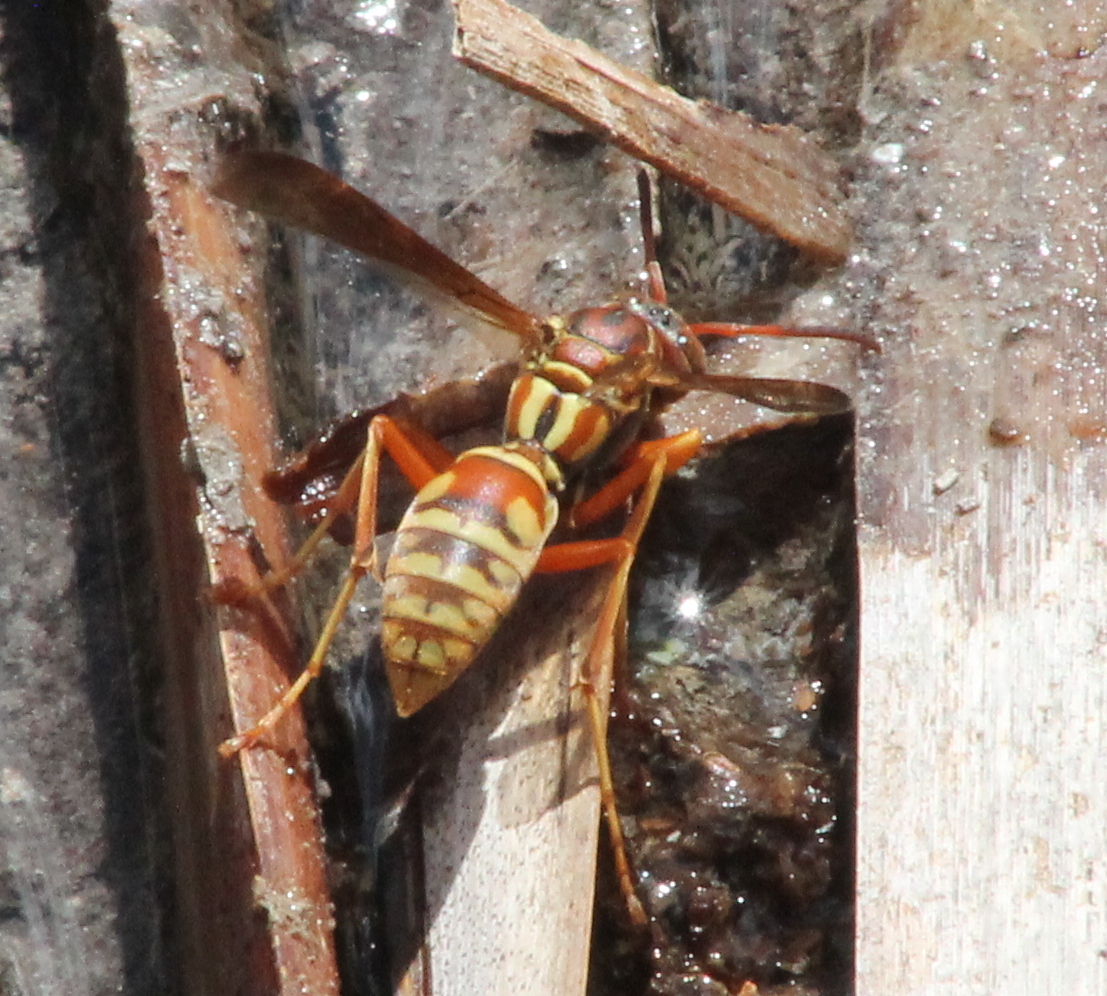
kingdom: Animalia
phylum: Arthropoda
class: Insecta
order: Hymenoptera
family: Eumenidae
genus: Polistes
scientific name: Polistes apachus
